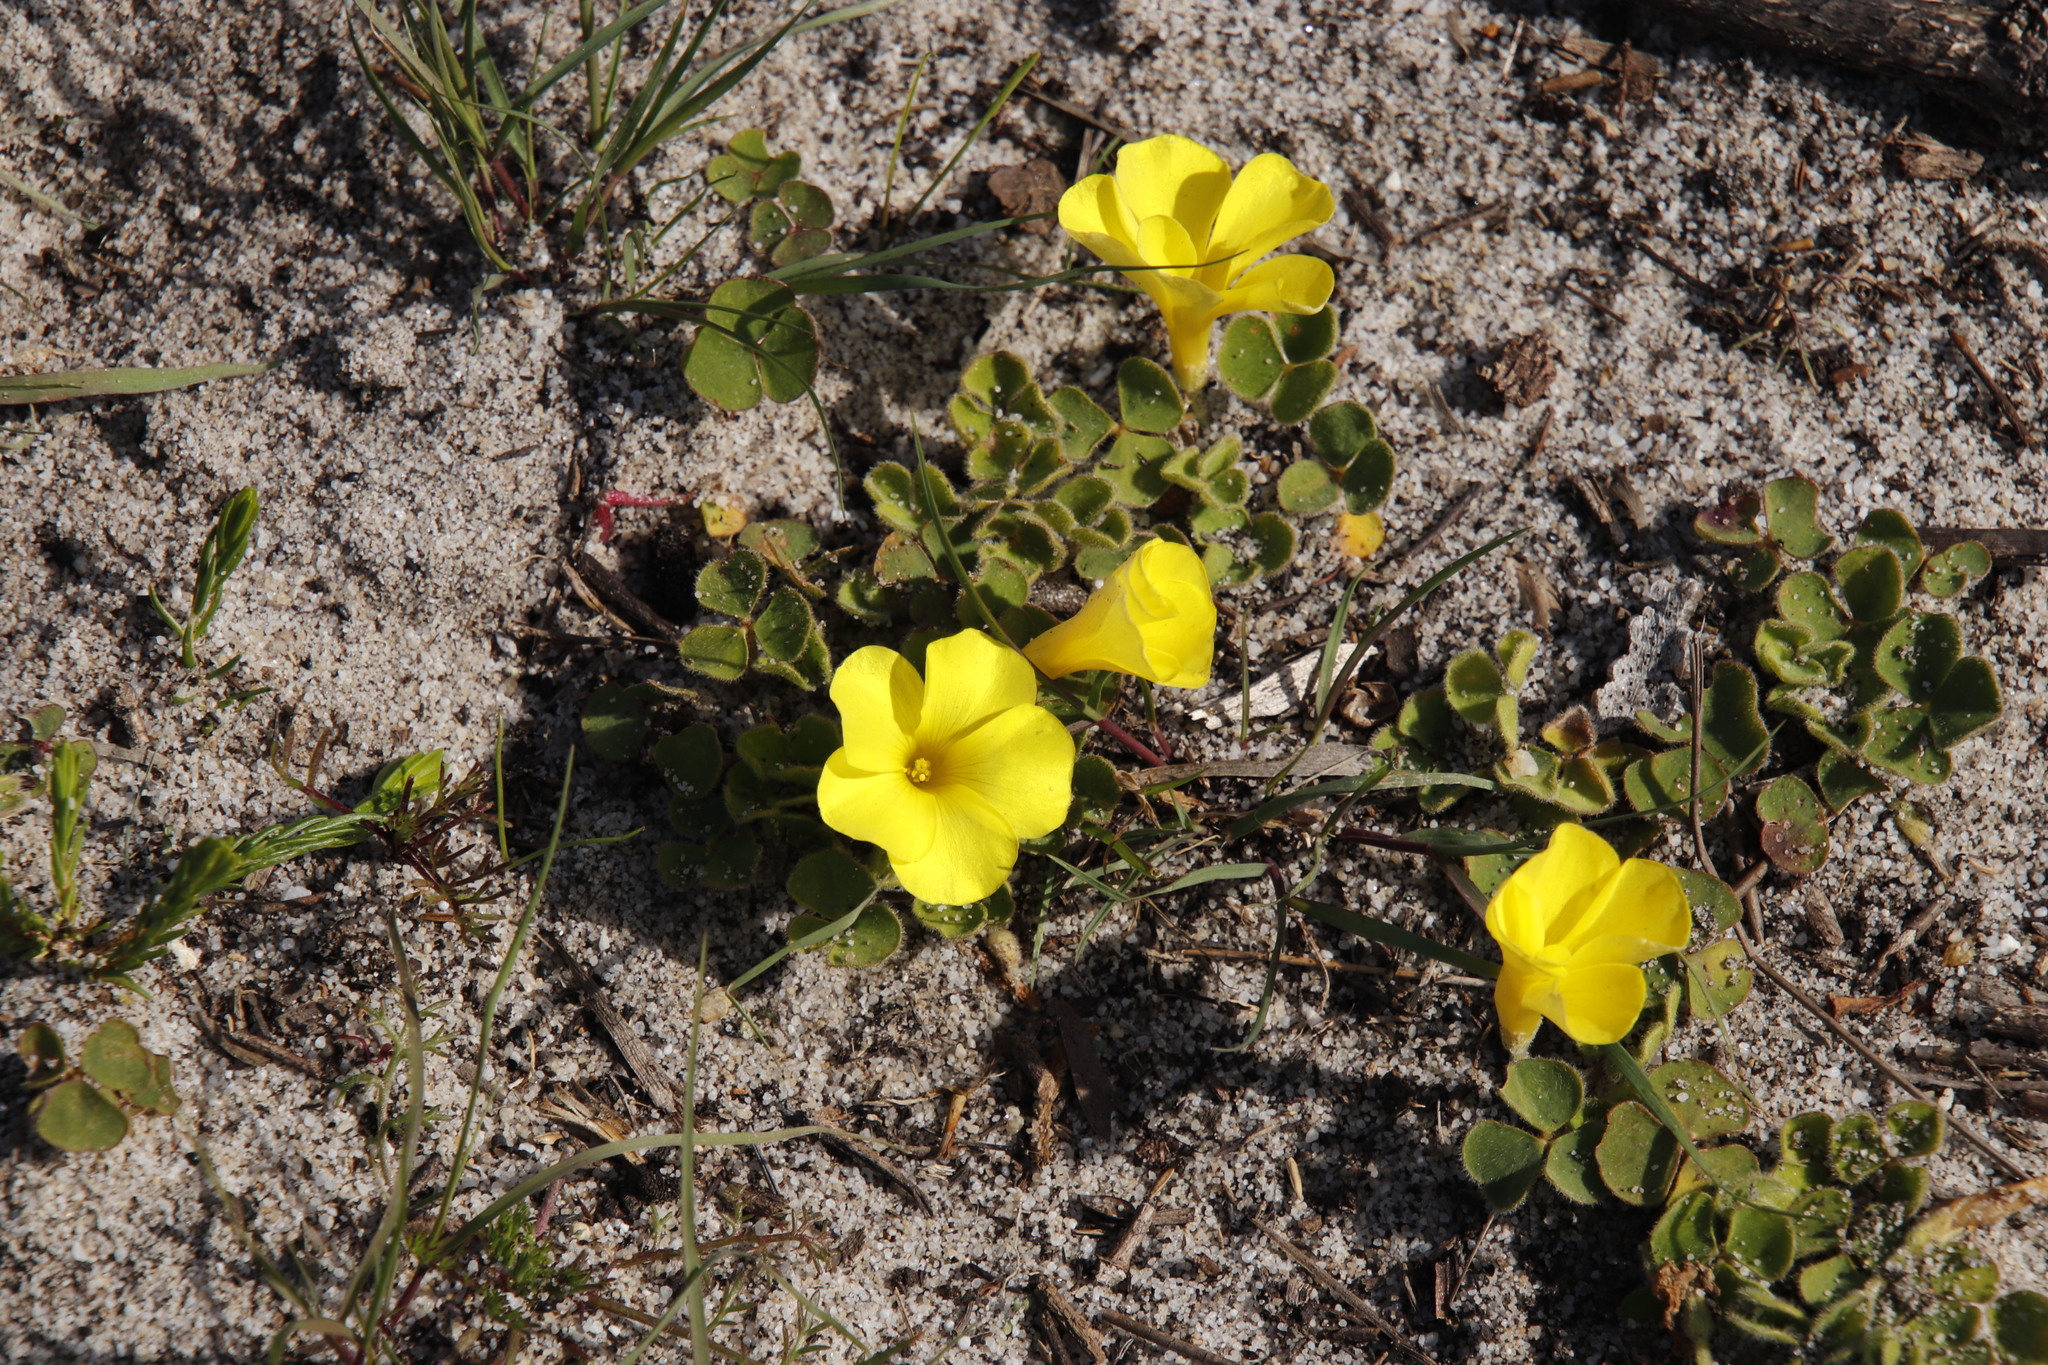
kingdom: Plantae
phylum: Tracheophyta
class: Magnoliopsida
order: Oxalidales
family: Oxalidaceae
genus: Oxalis
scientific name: Oxalis luteola
